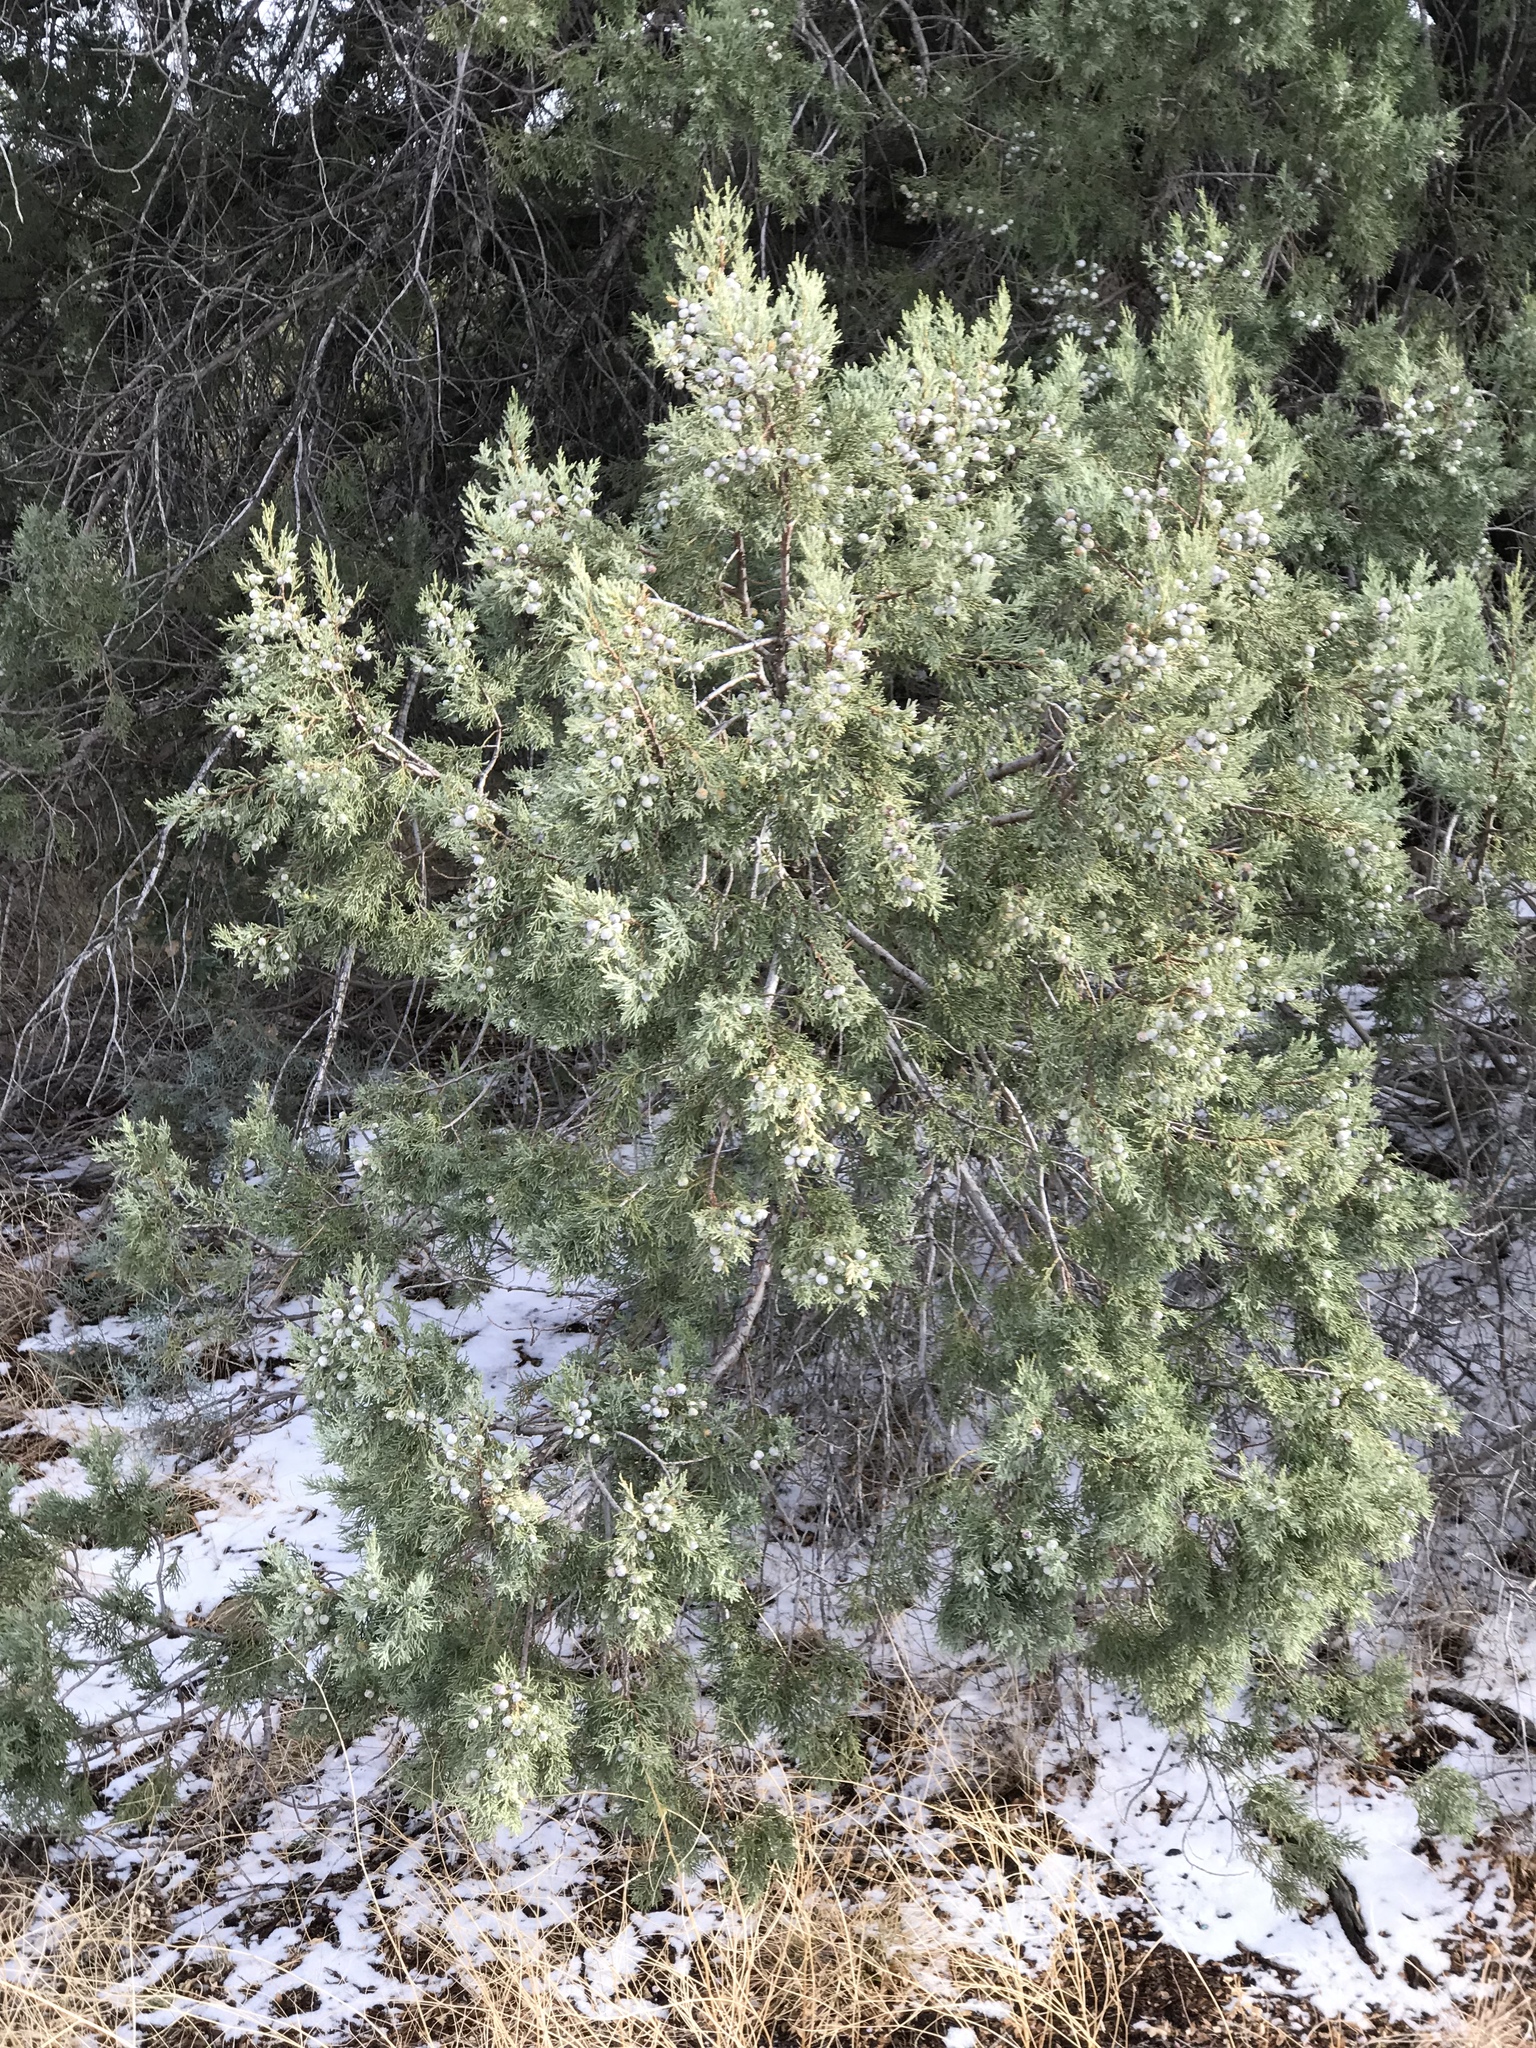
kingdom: Plantae
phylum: Tracheophyta
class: Pinopsida
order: Pinales
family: Cupressaceae
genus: Juniperus
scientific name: Juniperus osteosperma
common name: Utah juniper
